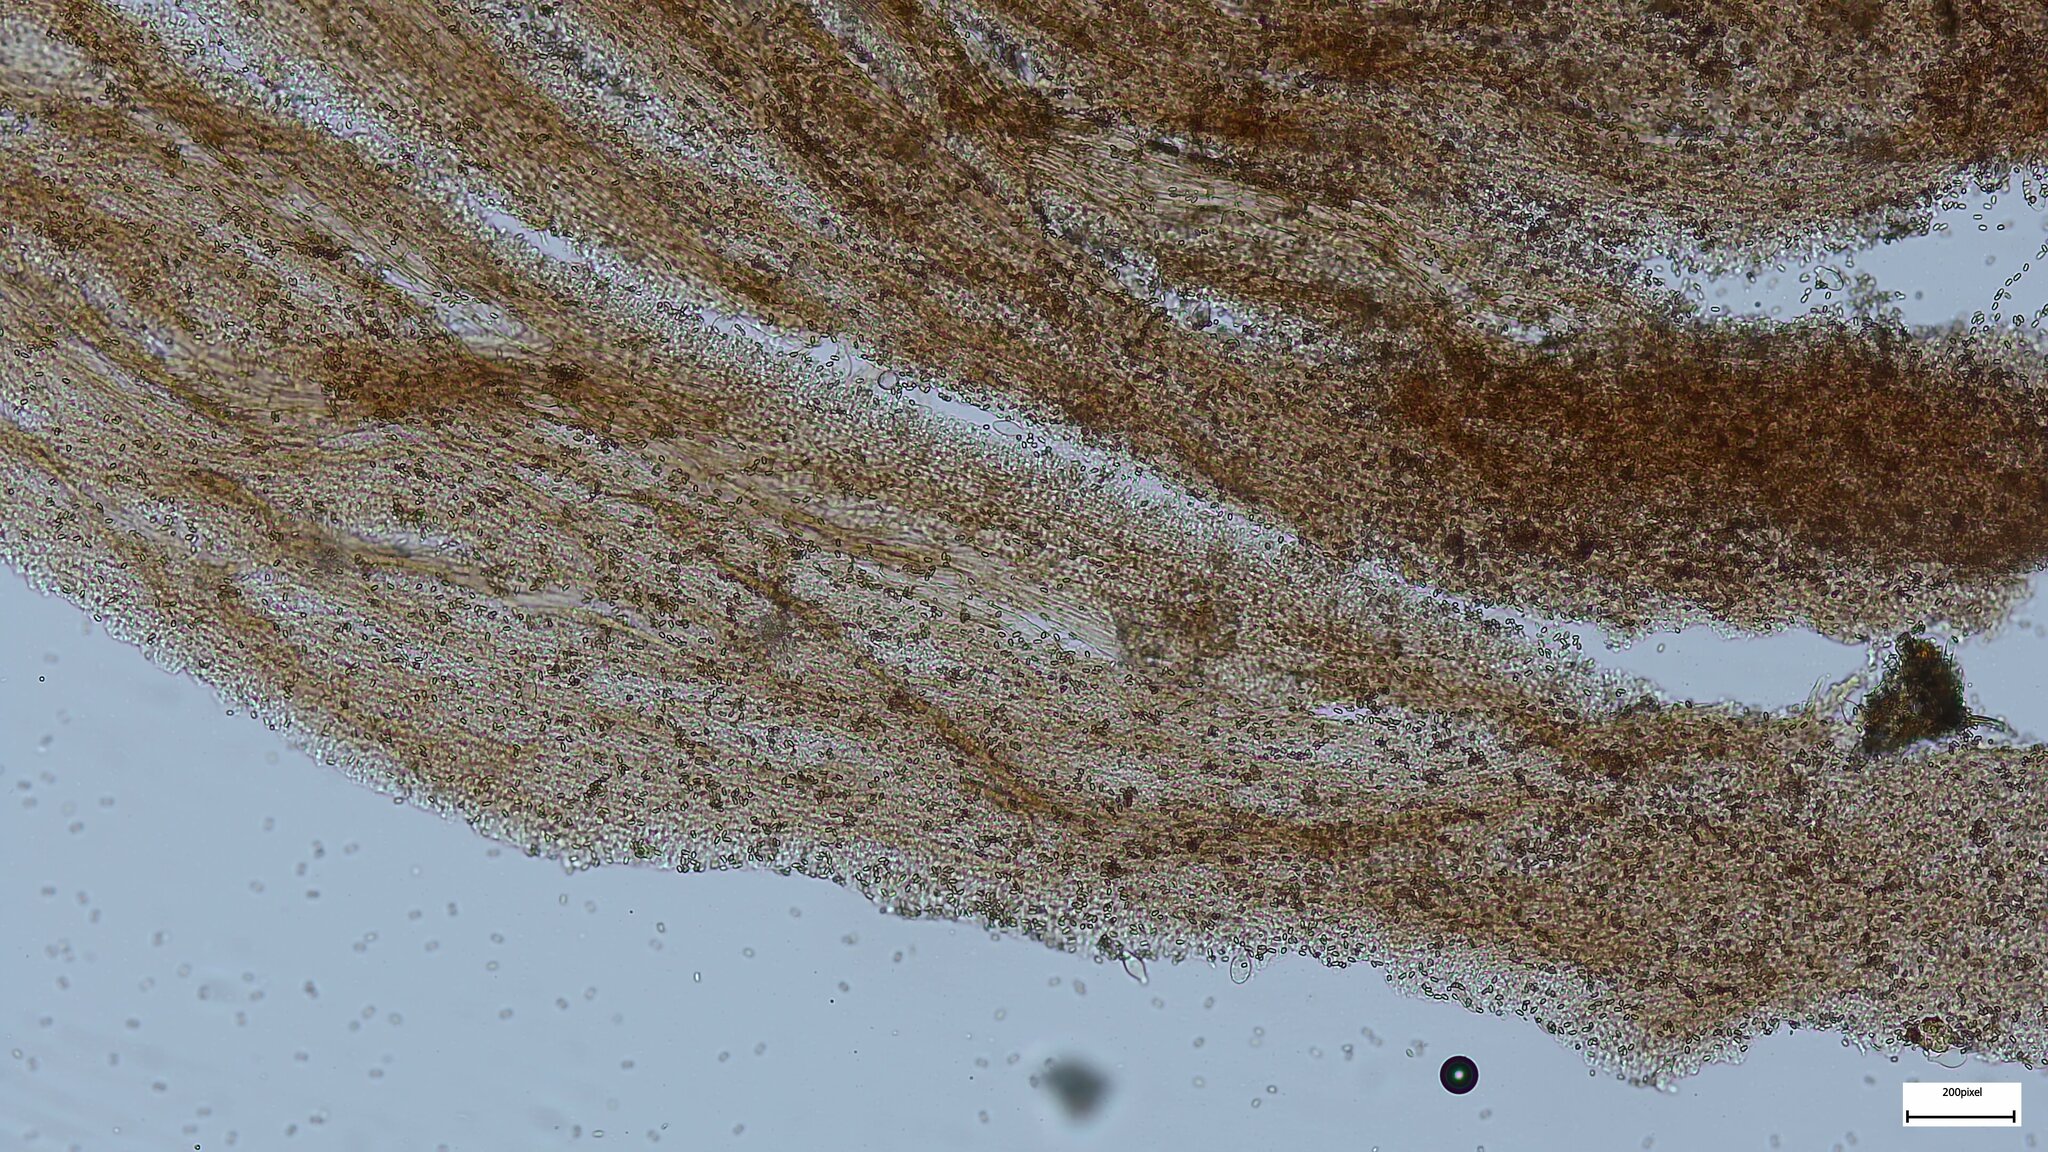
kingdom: Fungi
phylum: Basidiomycota
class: Agaricomycetes
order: Agaricales
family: Psathyrellaceae
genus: Psathyrella
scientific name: Psathyrella piluliformis
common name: Common stump brittlestem
